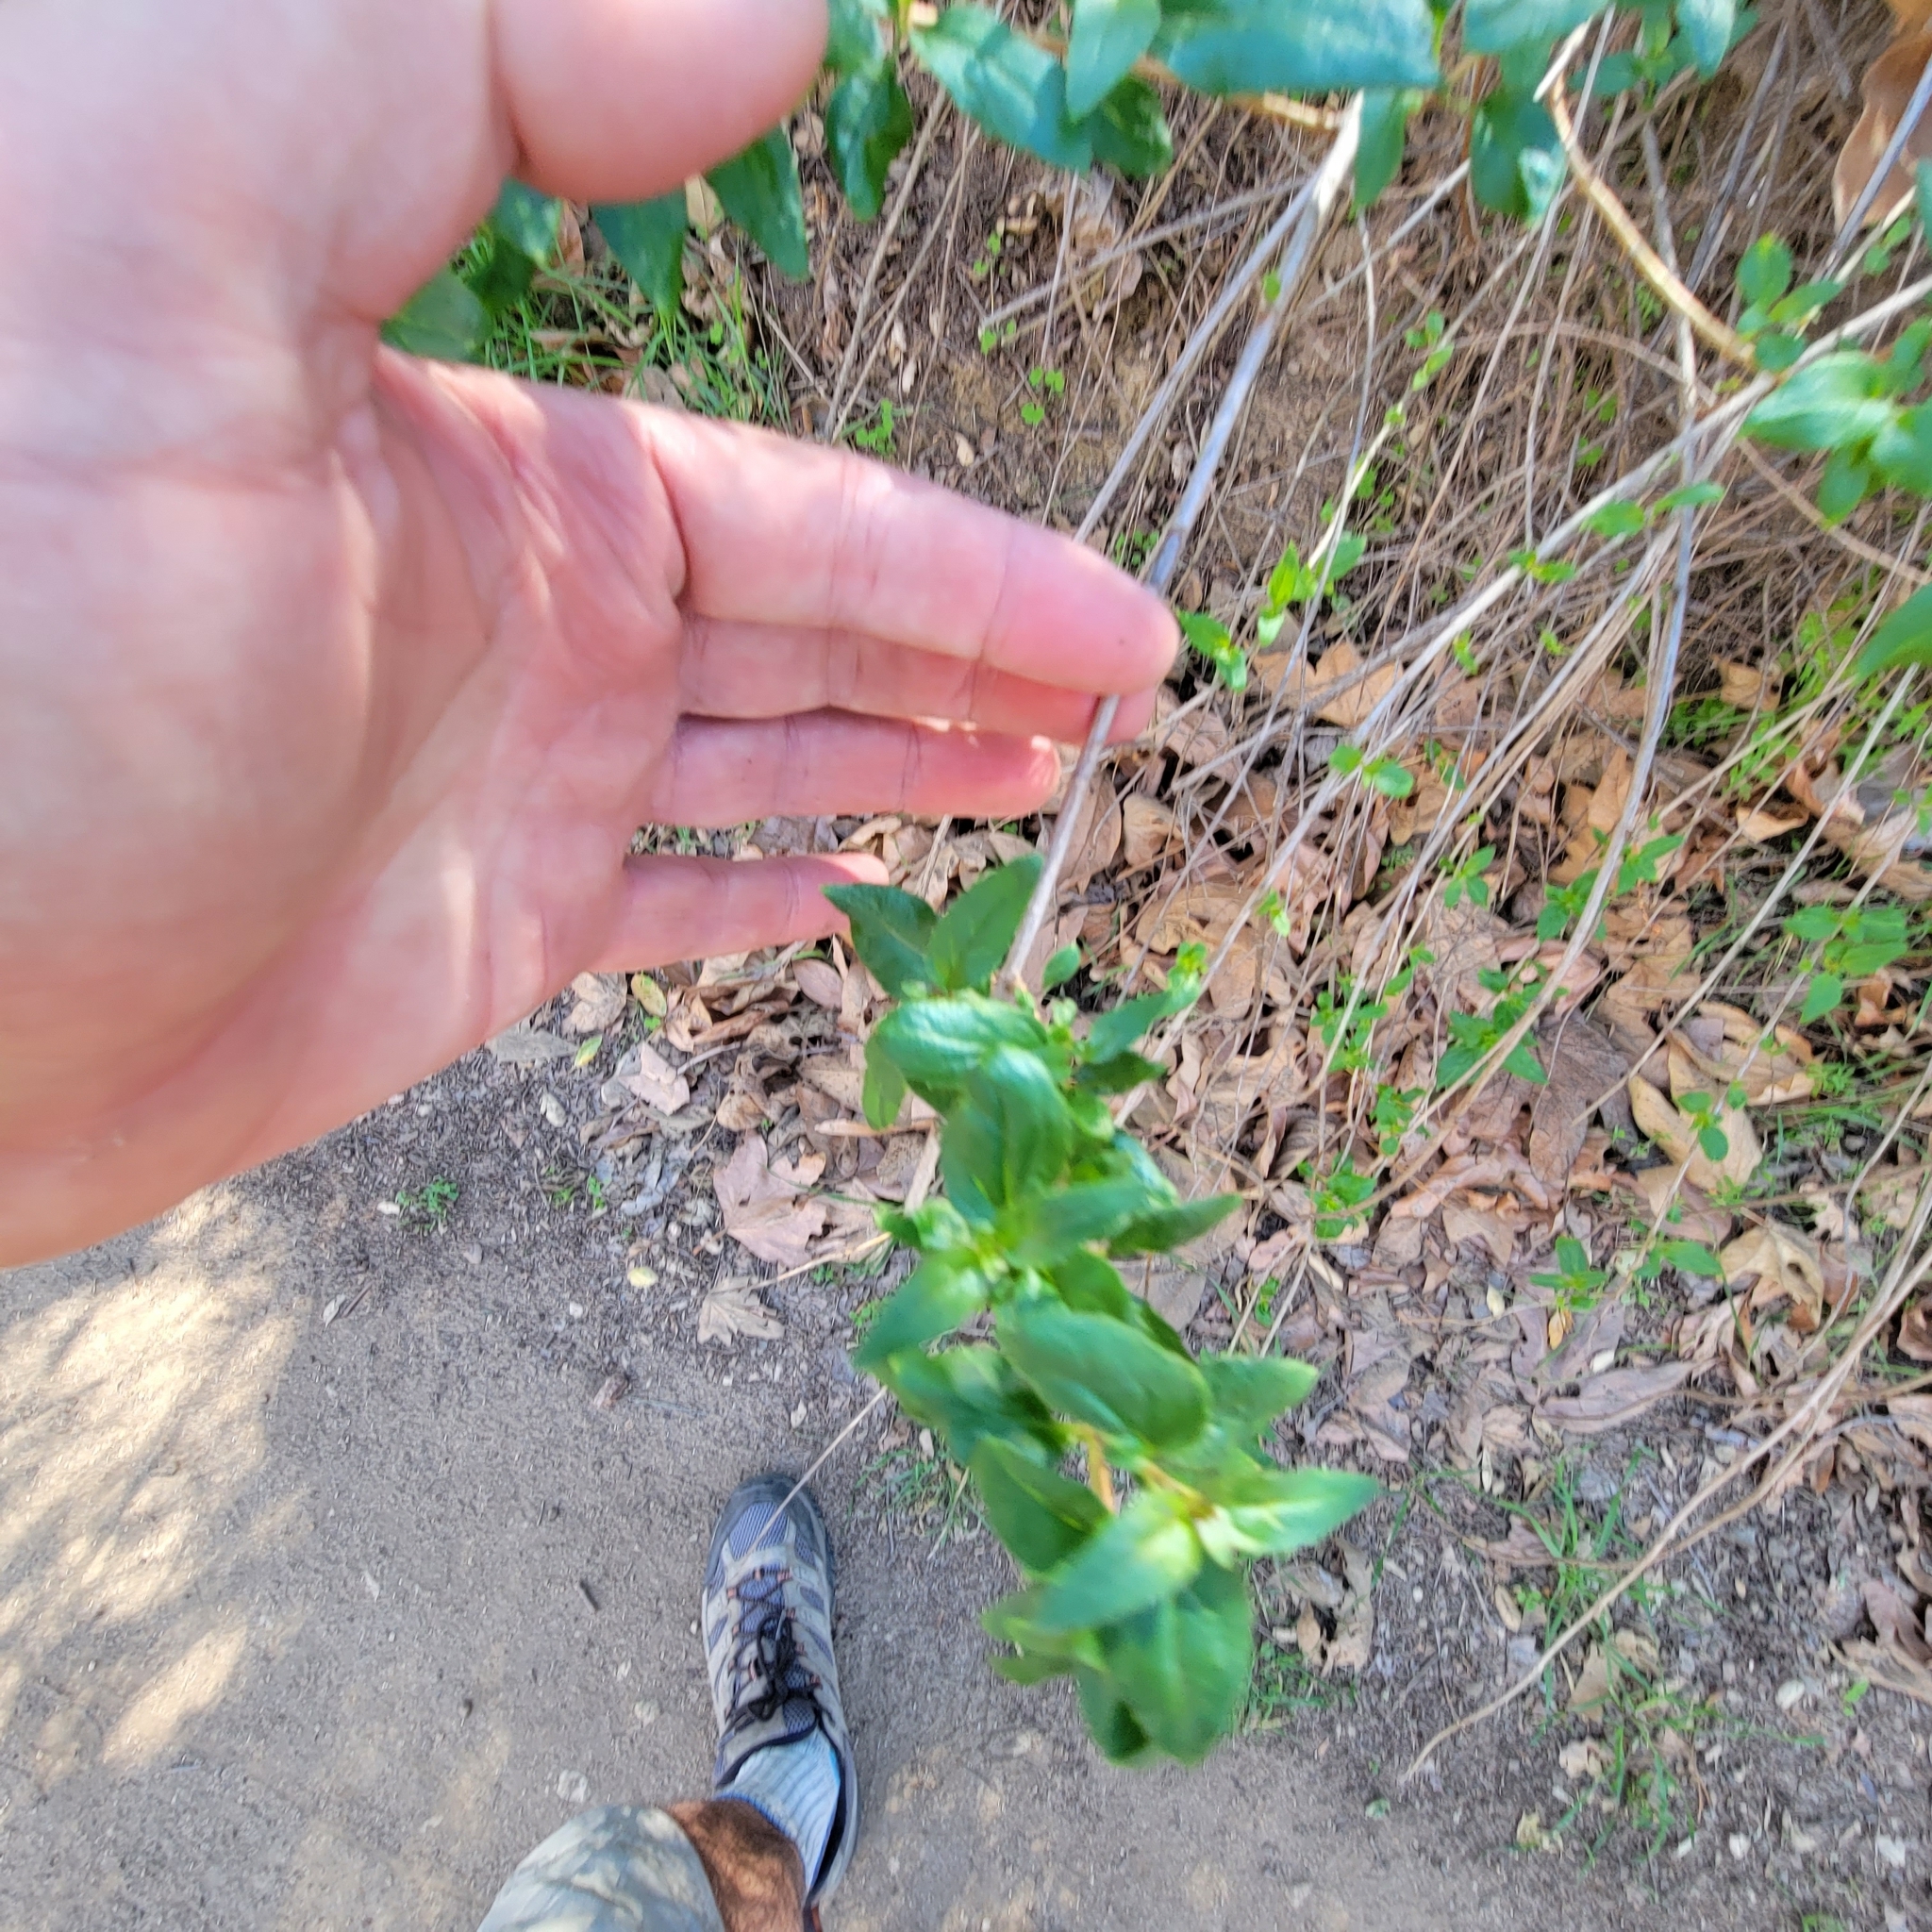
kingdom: Plantae
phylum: Tracheophyta
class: Magnoliopsida
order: Lamiales
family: Plantaginaceae
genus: Keckiella
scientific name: Keckiella cordifolia
